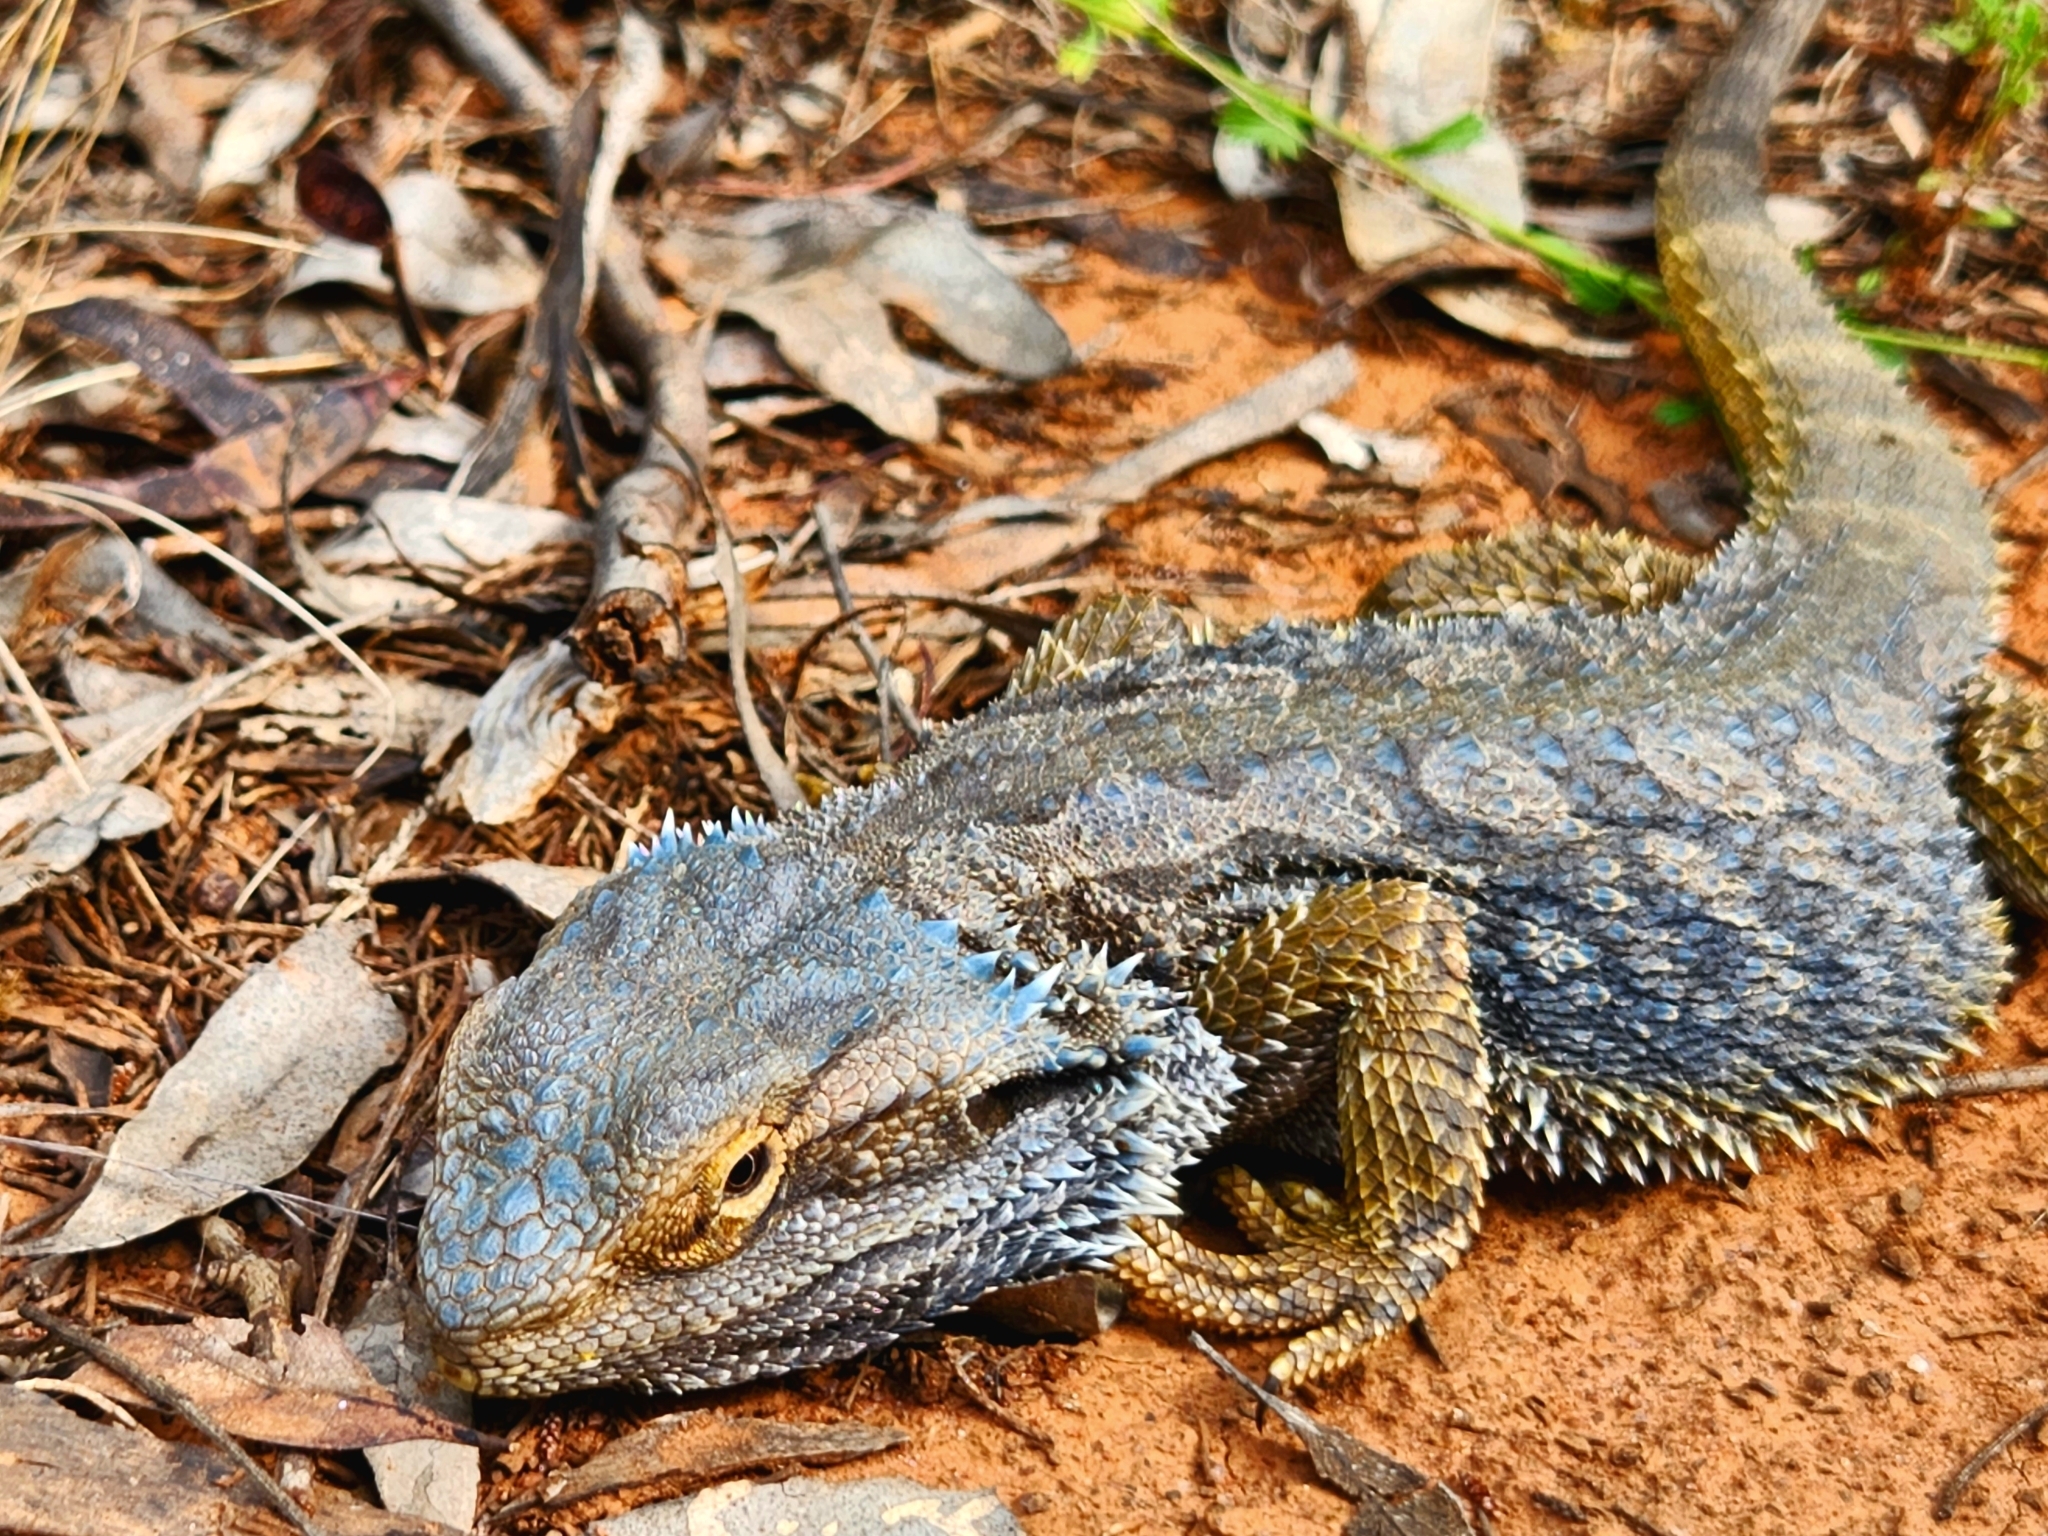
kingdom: Animalia
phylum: Chordata
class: Squamata
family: Agamidae
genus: Pogona
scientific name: Pogona barbata
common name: Bearded dragon
